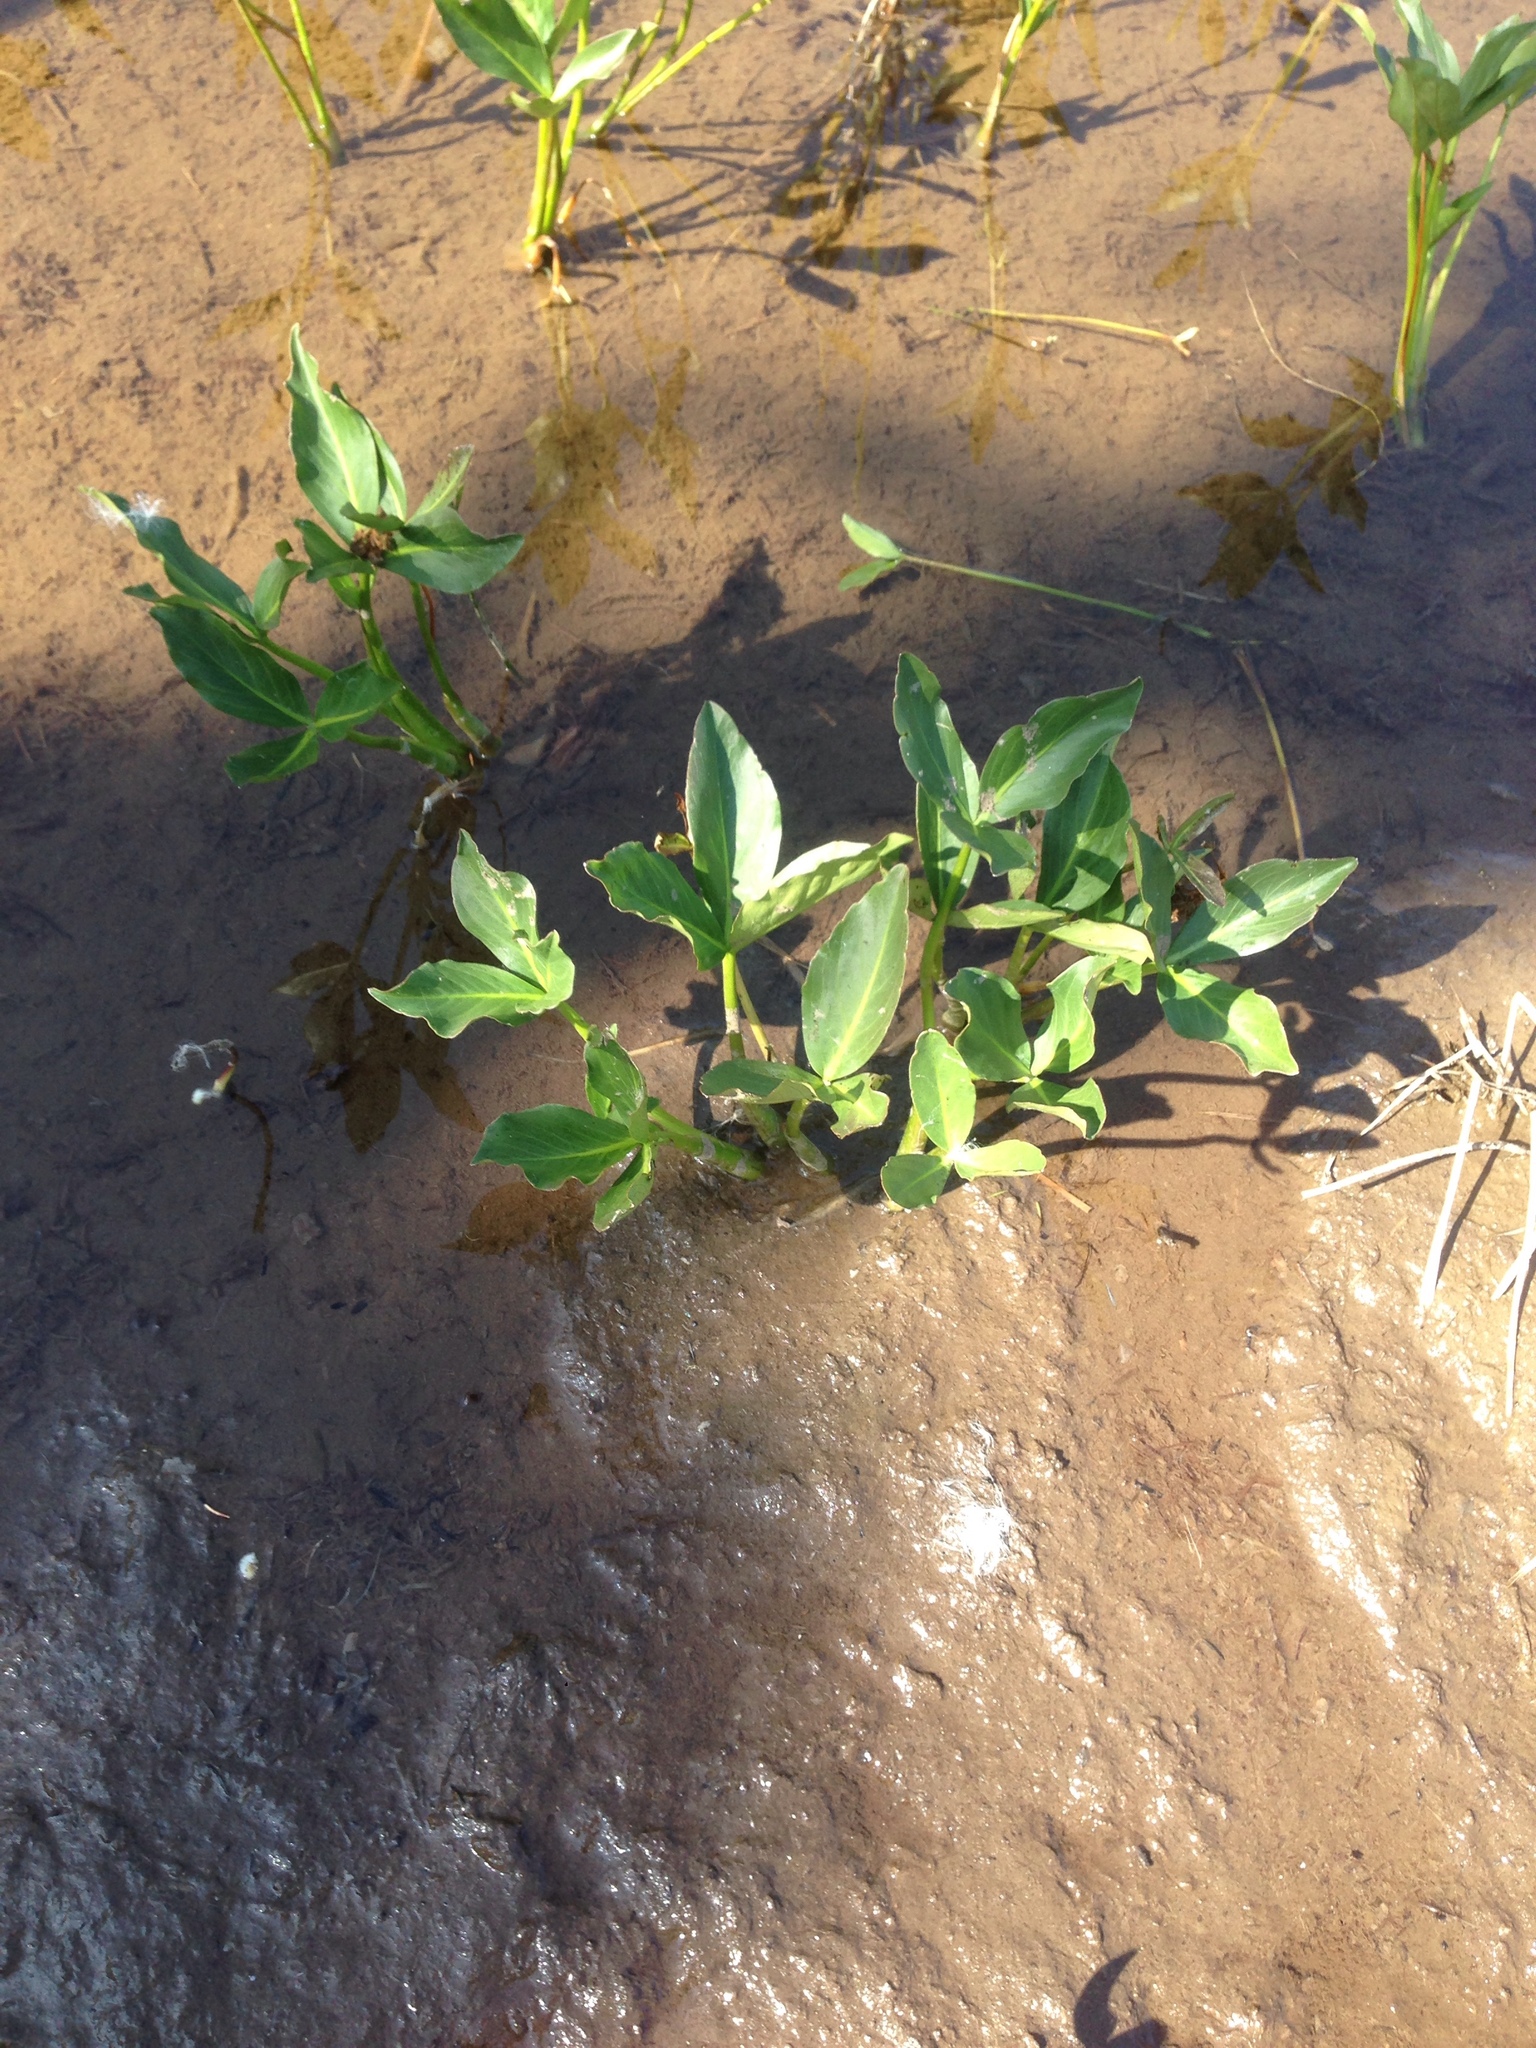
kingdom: Plantae
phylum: Tracheophyta
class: Magnoliopsida
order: Asterales
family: Menyanthaceae
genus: Menyanthes
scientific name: Menyanthes trifoliata
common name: Bogbean
